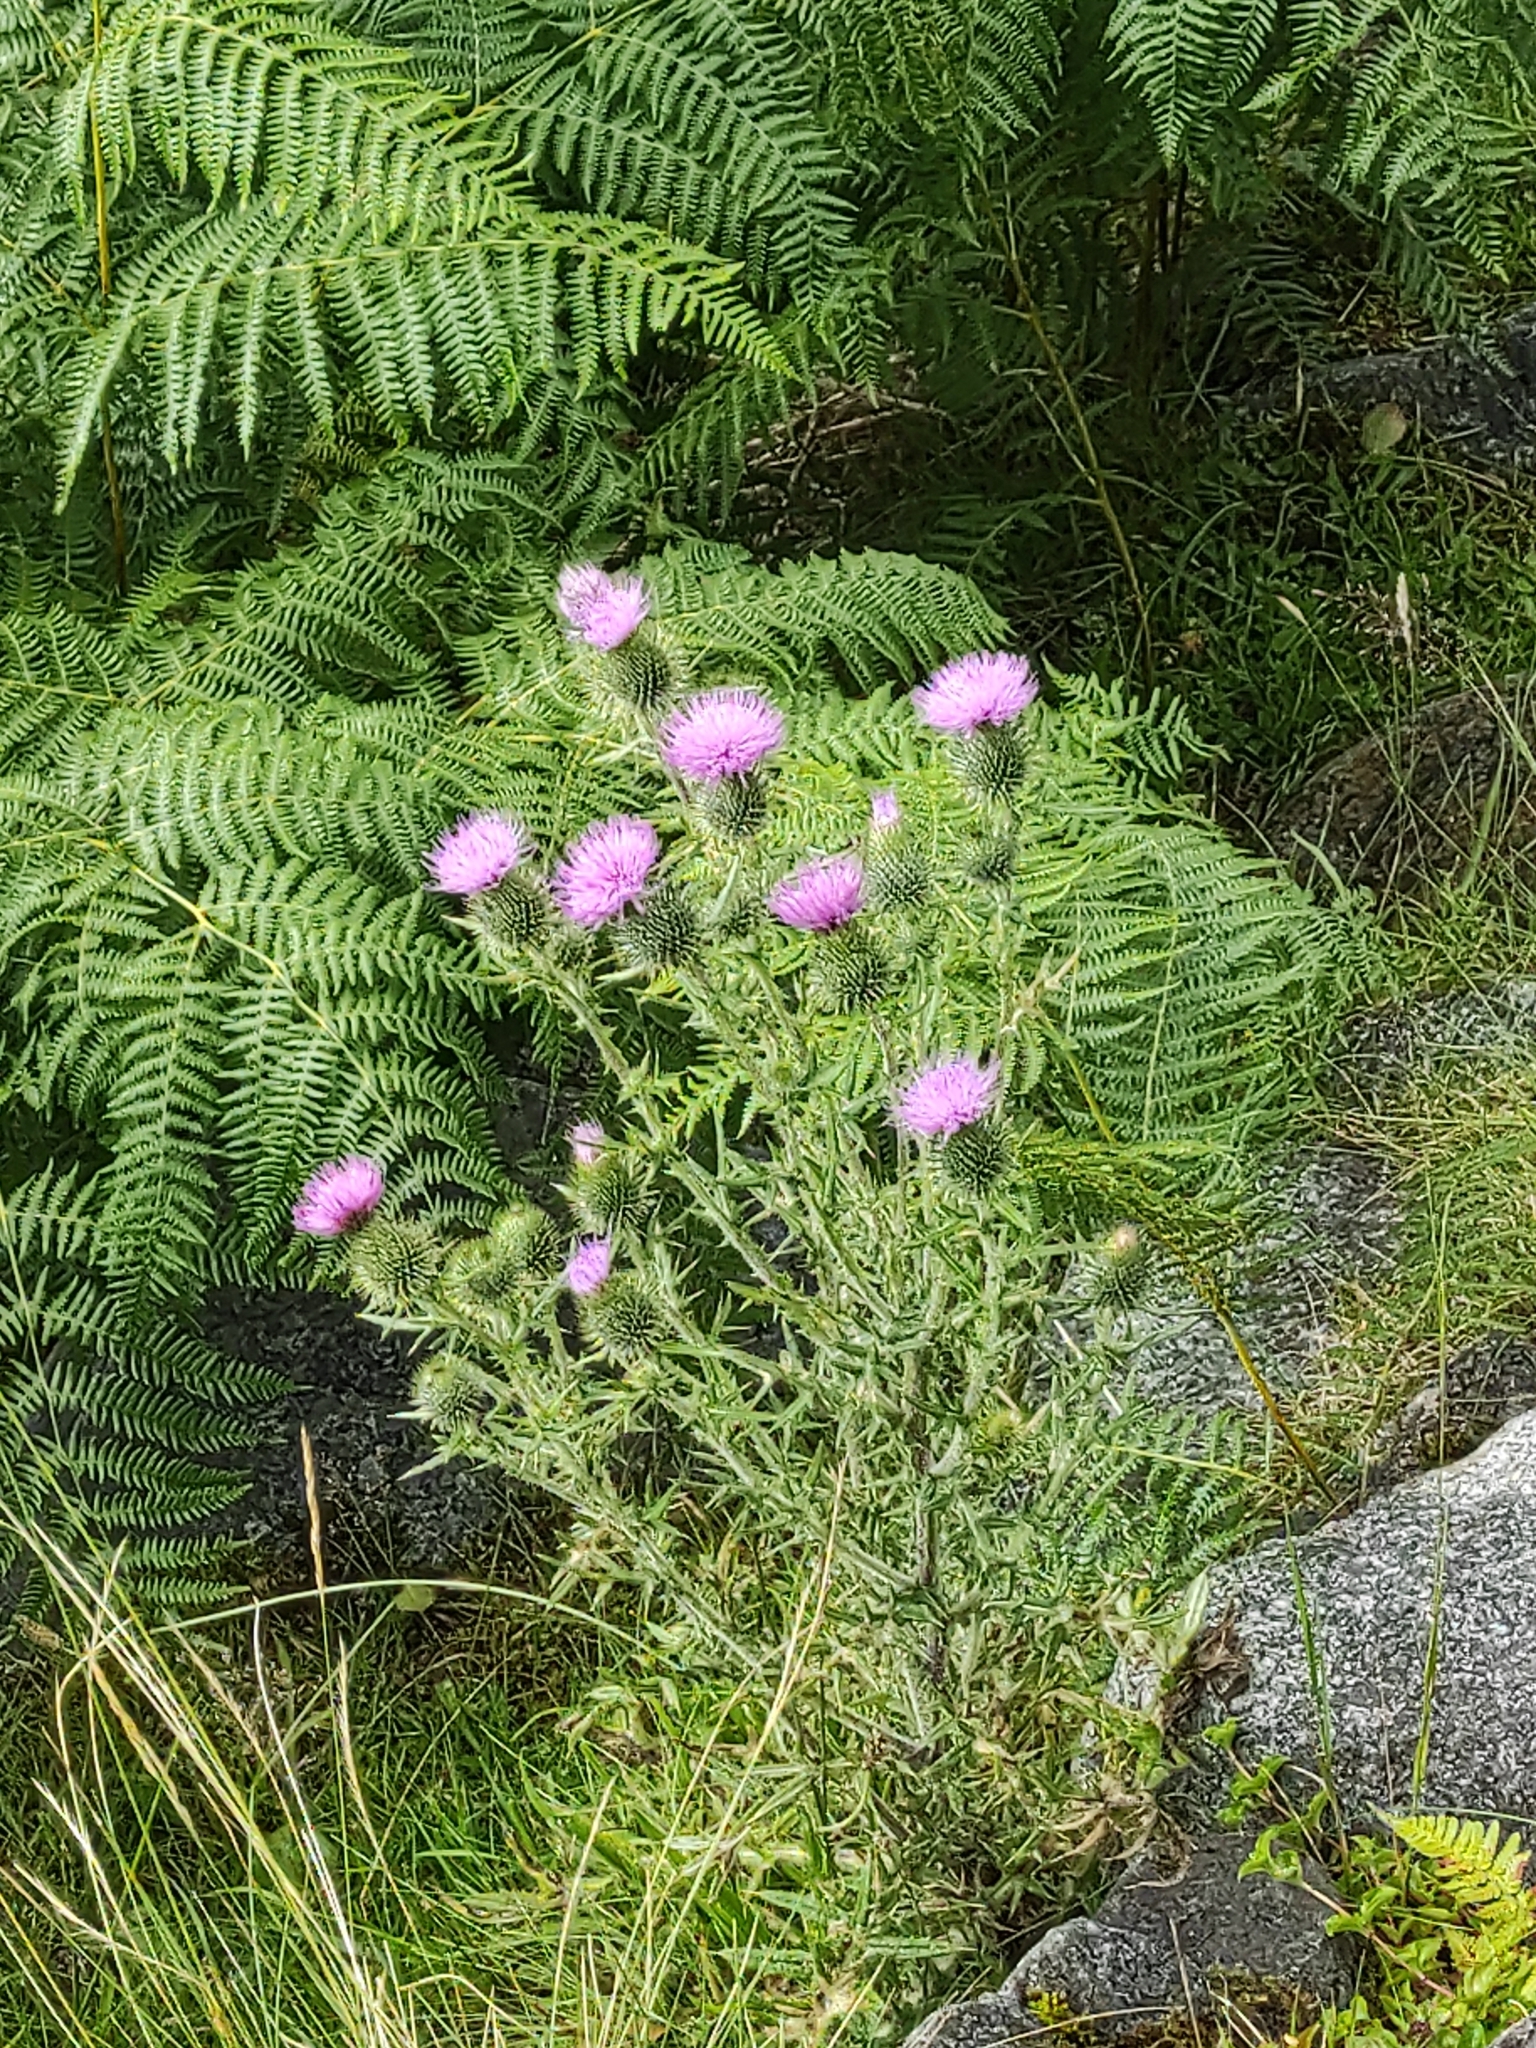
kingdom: Plantae
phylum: Tracheophyta
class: Magnoliopsida
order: Asterales
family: Asteraceae
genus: Cirsium
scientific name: Cirsium vulgare
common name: Bull thistle
